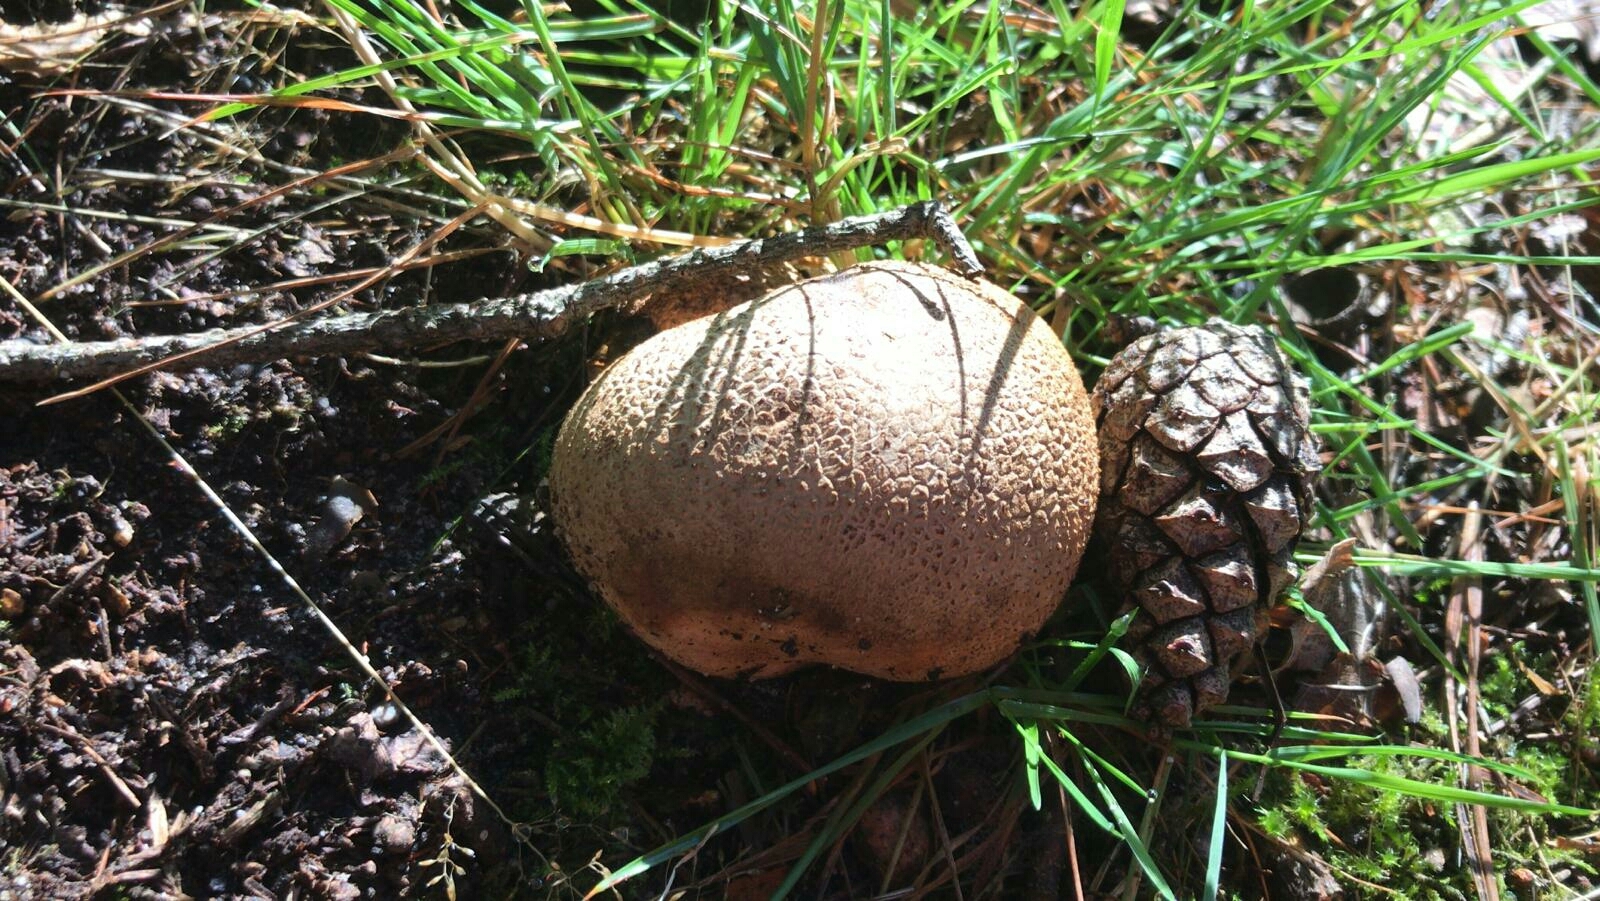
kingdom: Fungi
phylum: Basidiomycota
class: Agaricomycetes
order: Boletales
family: Sclerodermataceae
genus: Scleroderma
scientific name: Scleroderma citrinum
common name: Common earthball
